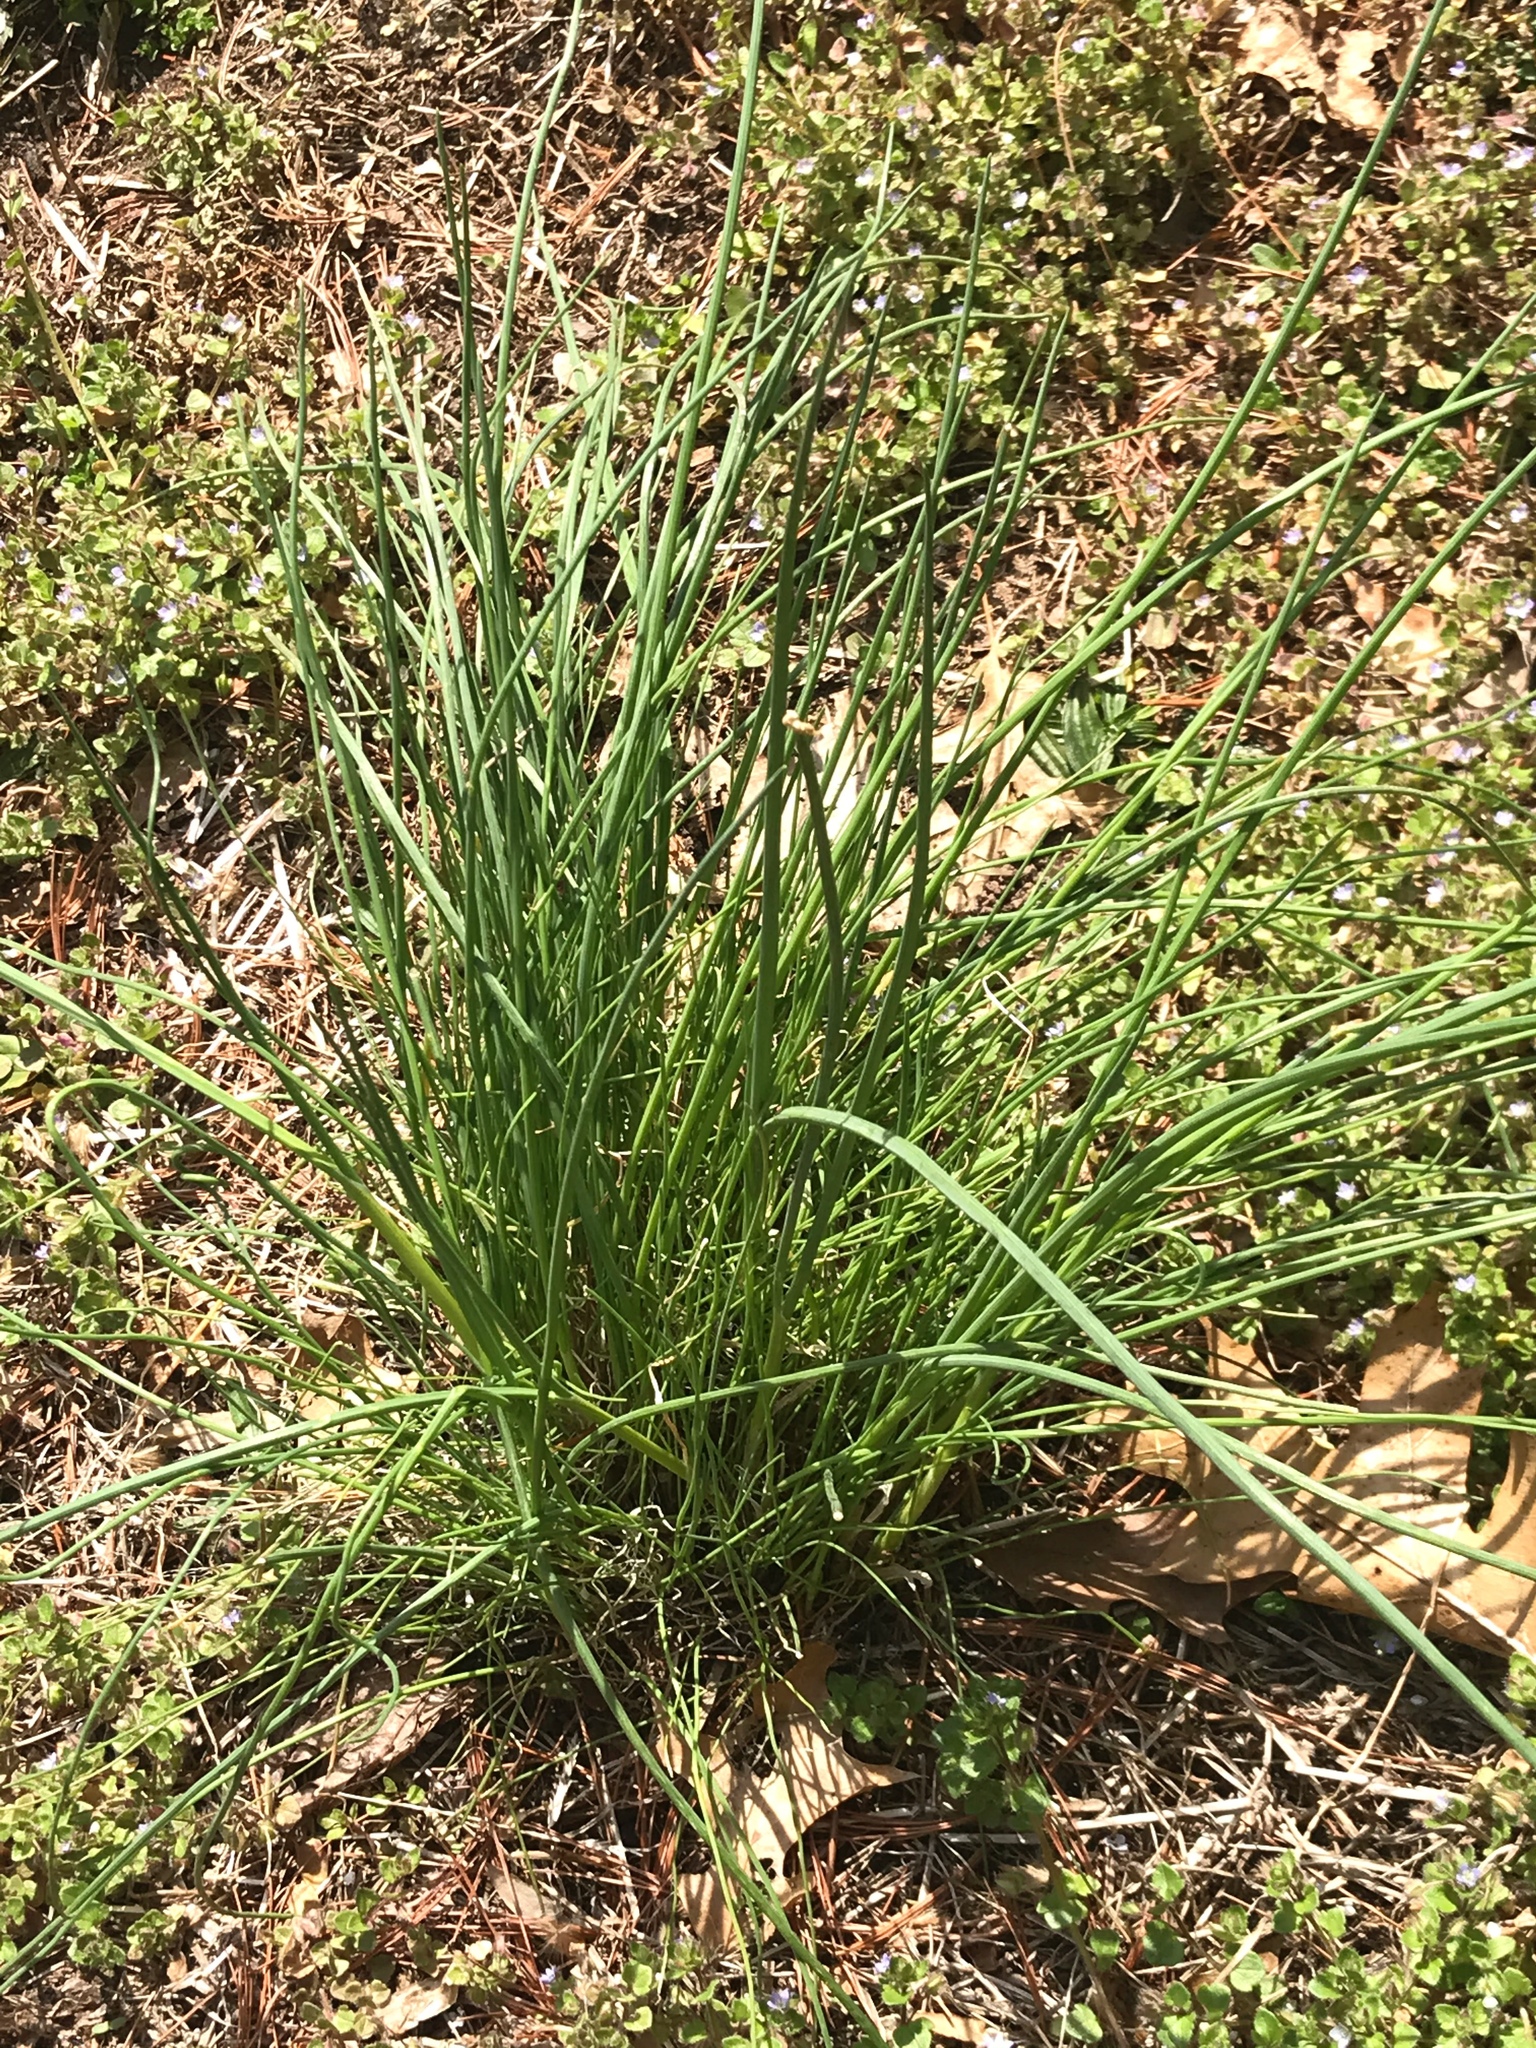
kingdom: Plantae
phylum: Tracheophyta
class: Liliopsida
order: Asparagales
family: Amaryllidaceae
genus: Allium
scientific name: Allium vineale
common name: Crow garlic
